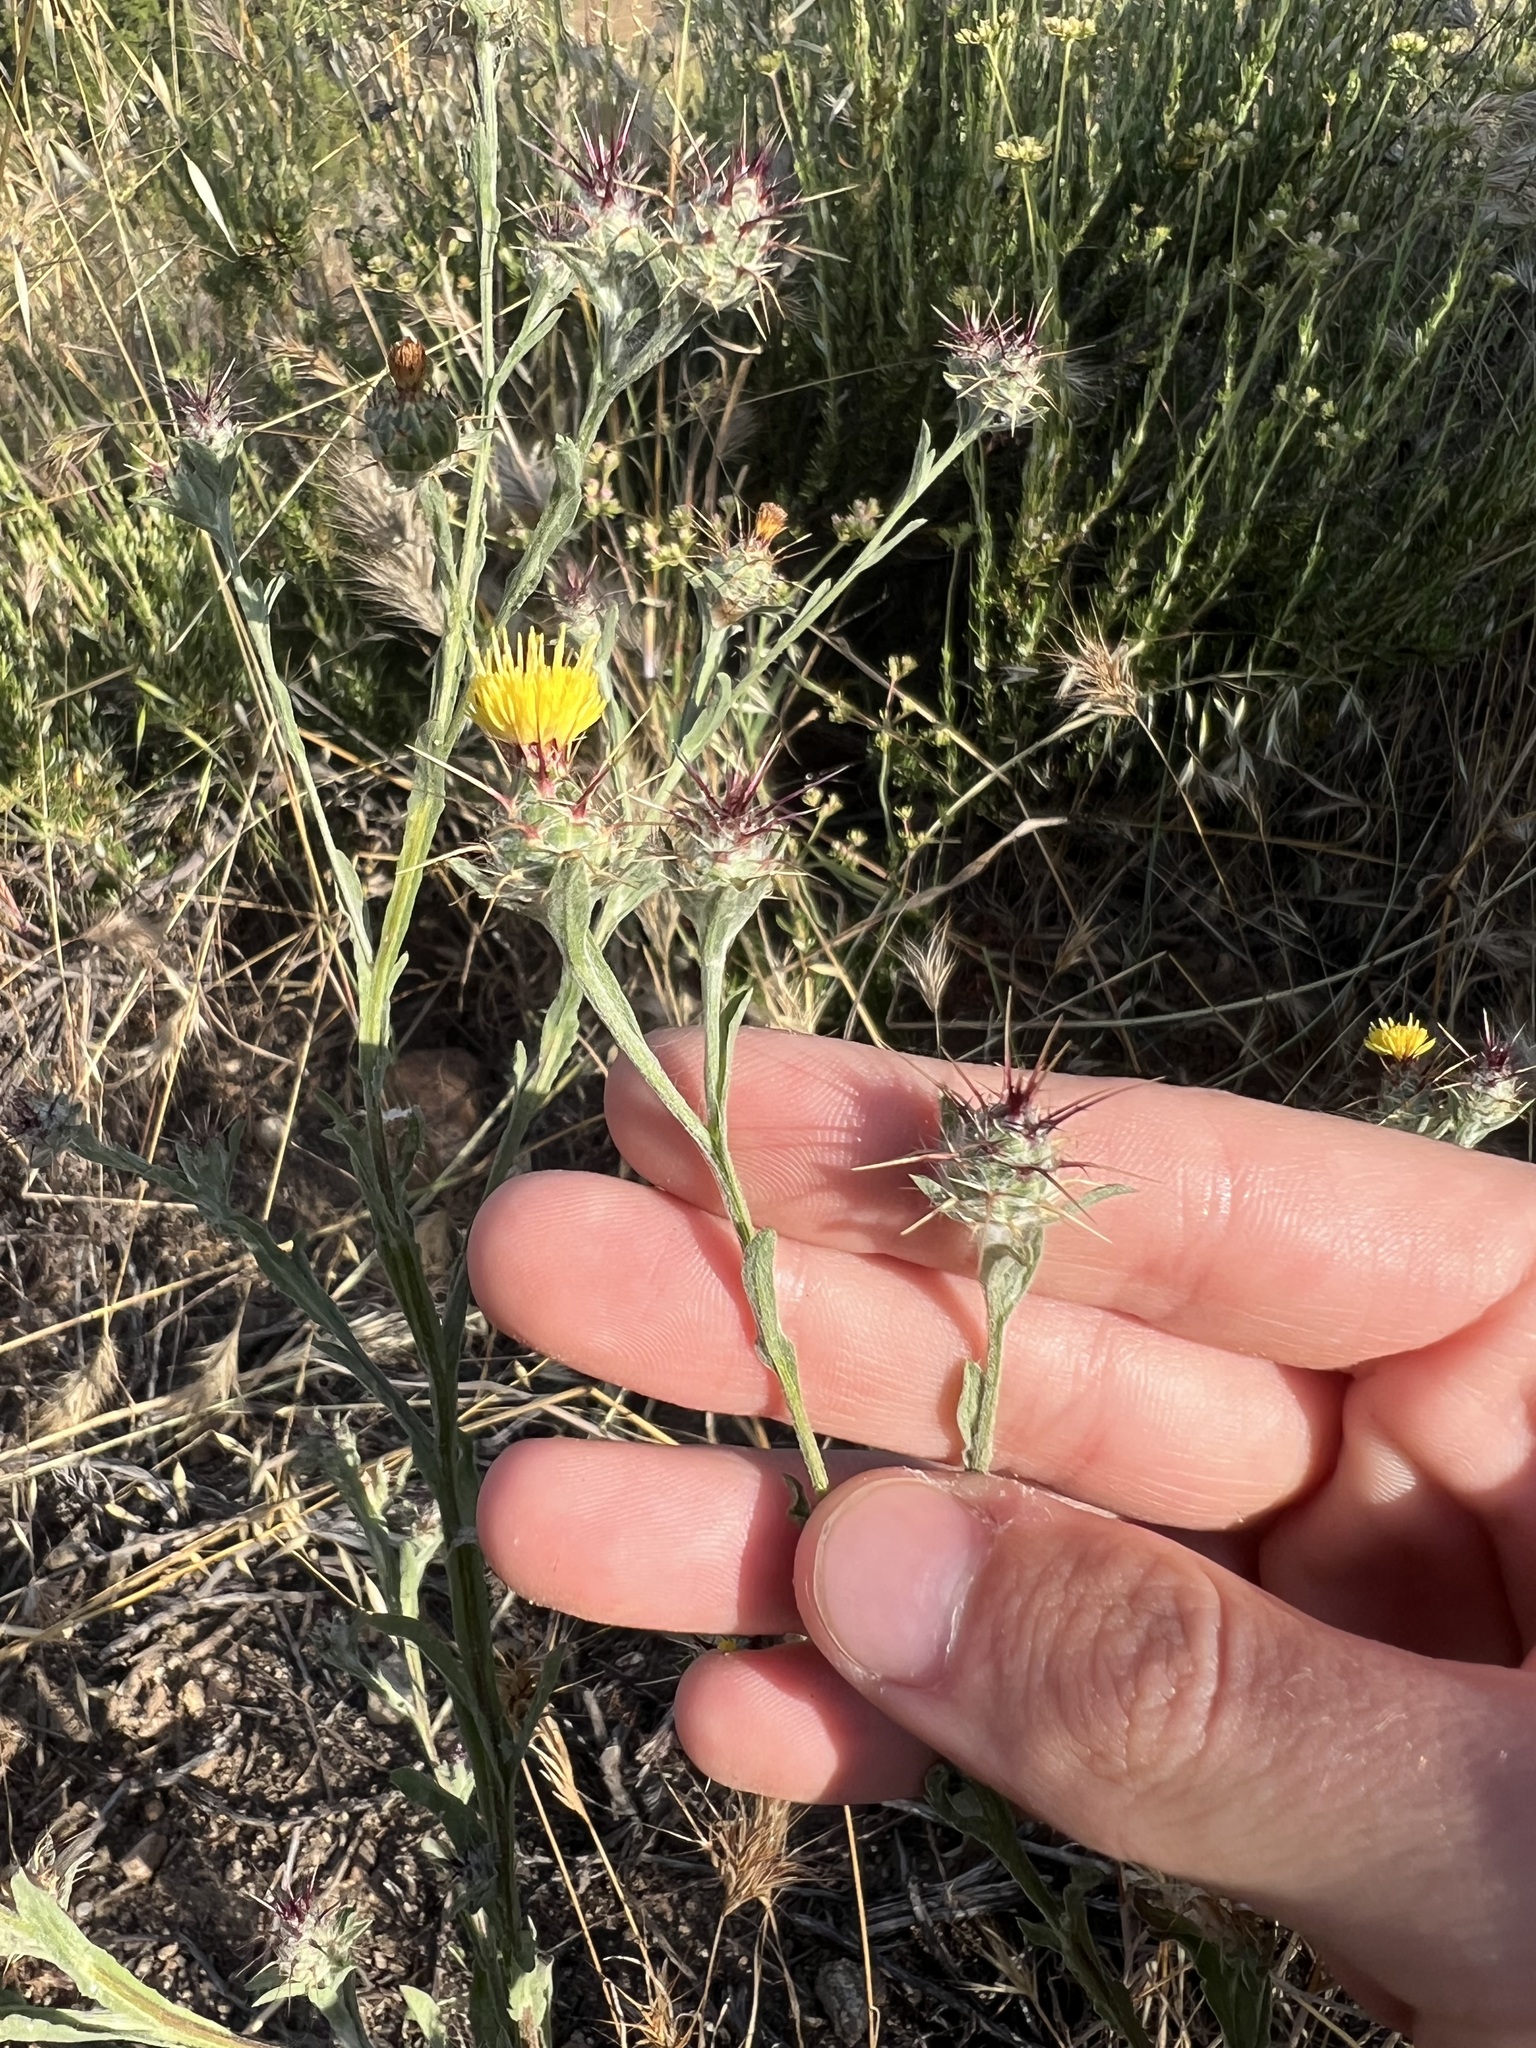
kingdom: Plantae
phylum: Tracheophyta
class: Magnoliopsida
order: Asterales
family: Asteraceae
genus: Centaurea
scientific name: Centaurea melitensis
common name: Maltese star-thistle
